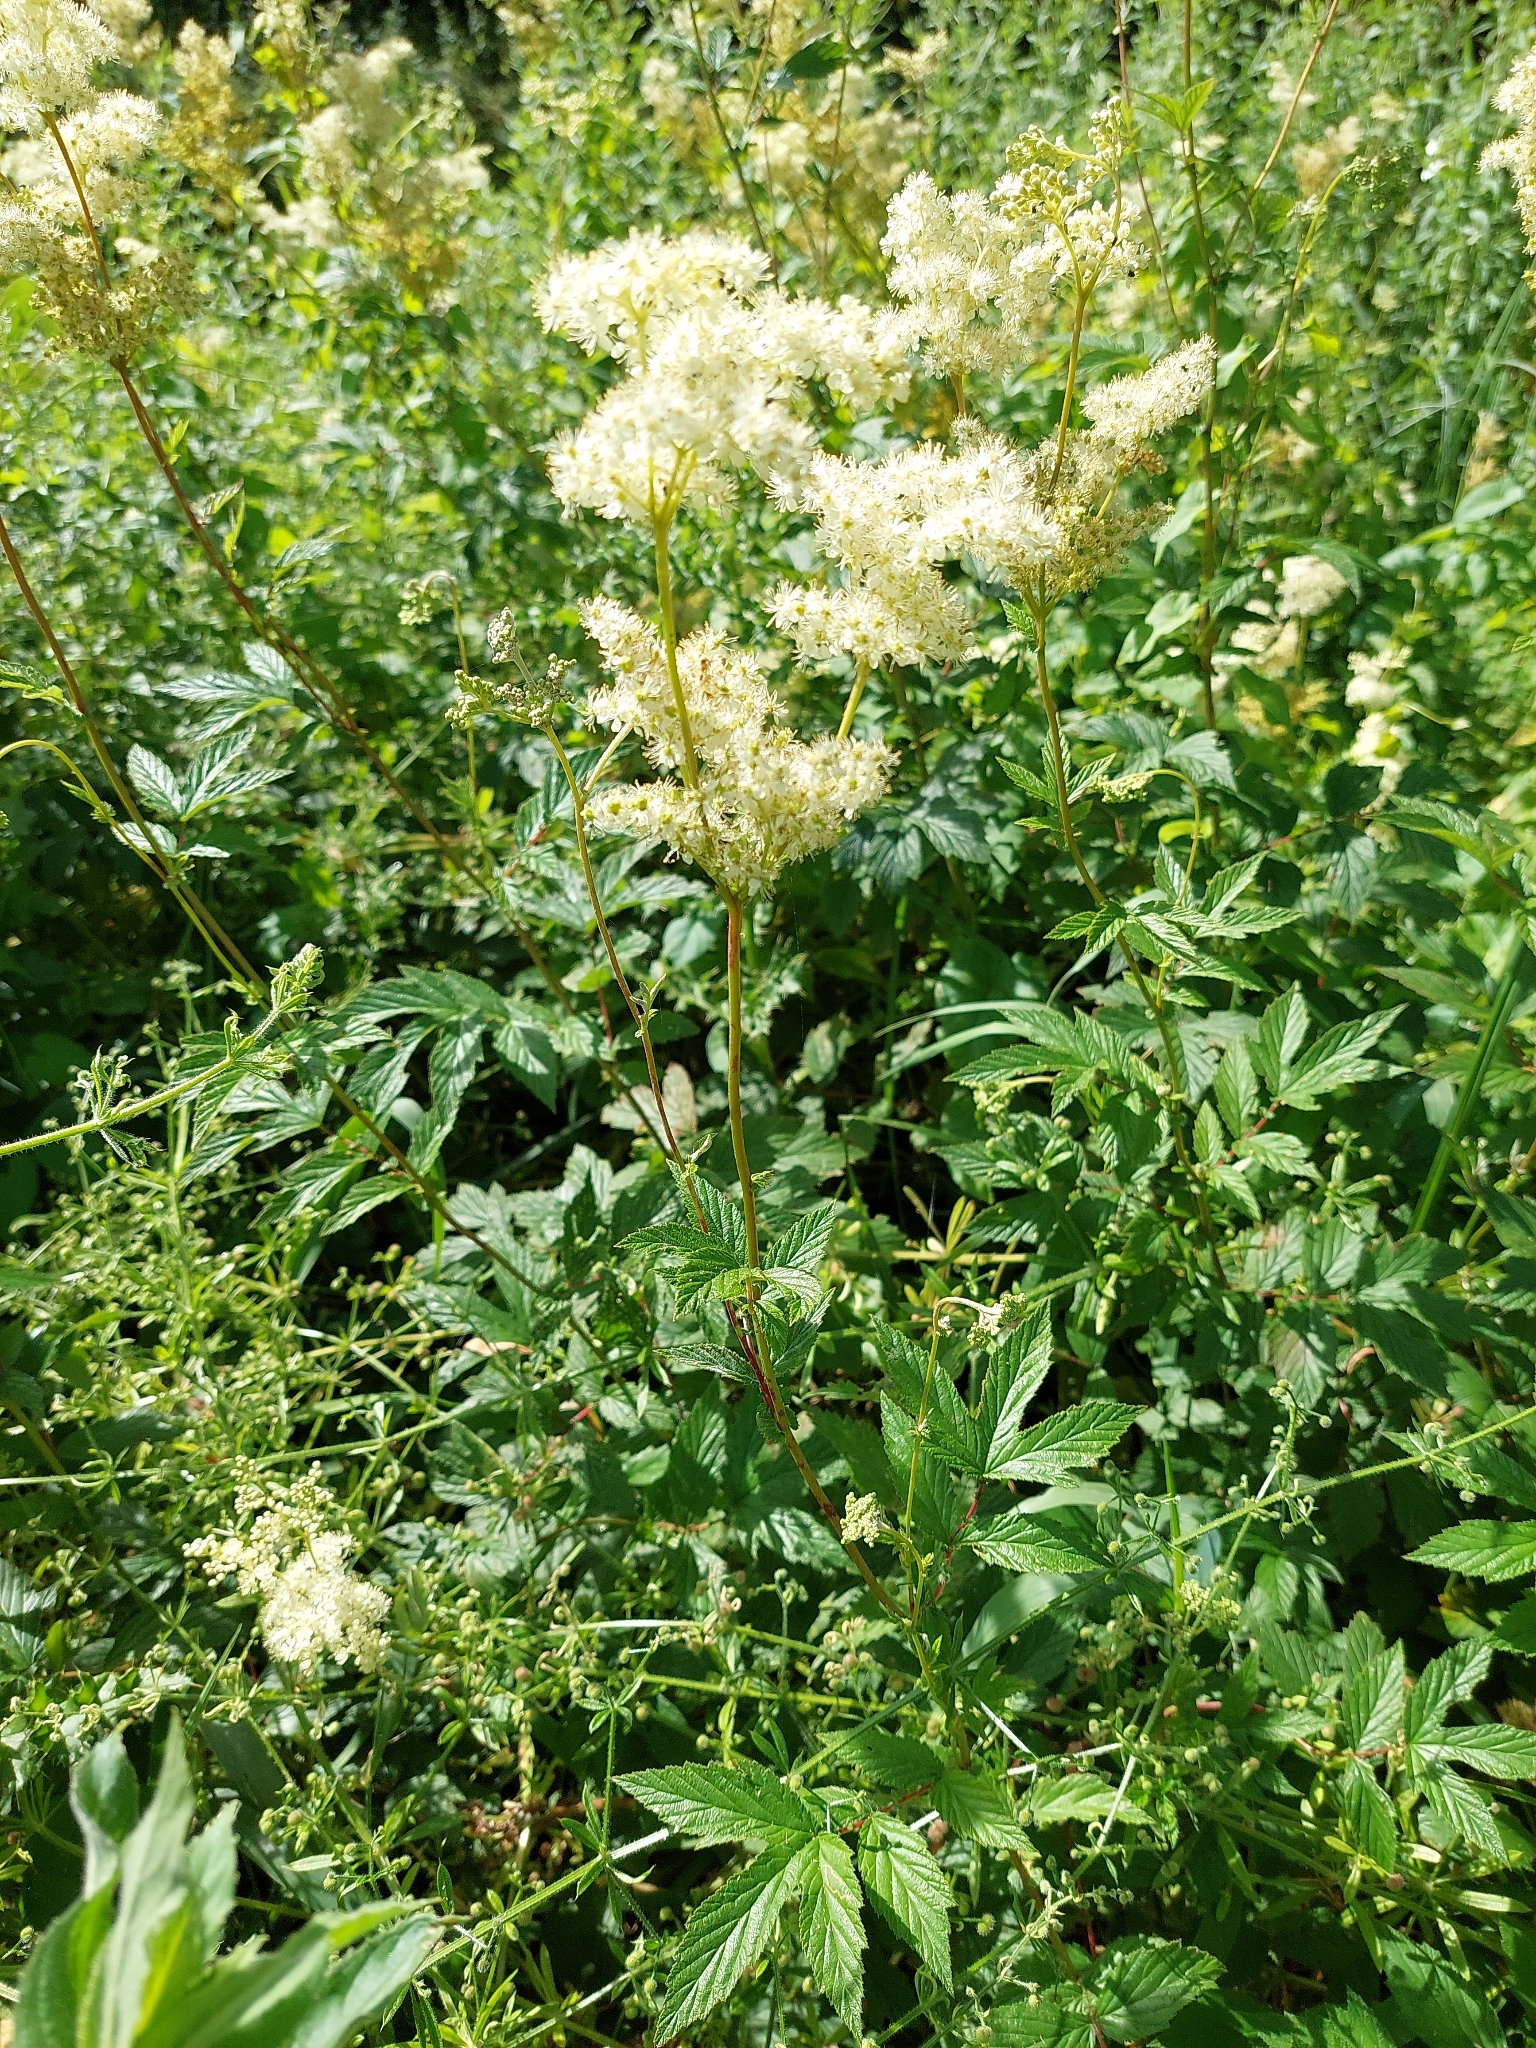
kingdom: Plantae
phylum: Tracheophyta
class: Magnoliopsida
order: Rosales
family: Rosaceae
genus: Filipendula
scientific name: Filipendula ulmaria
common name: Meadowsweet
